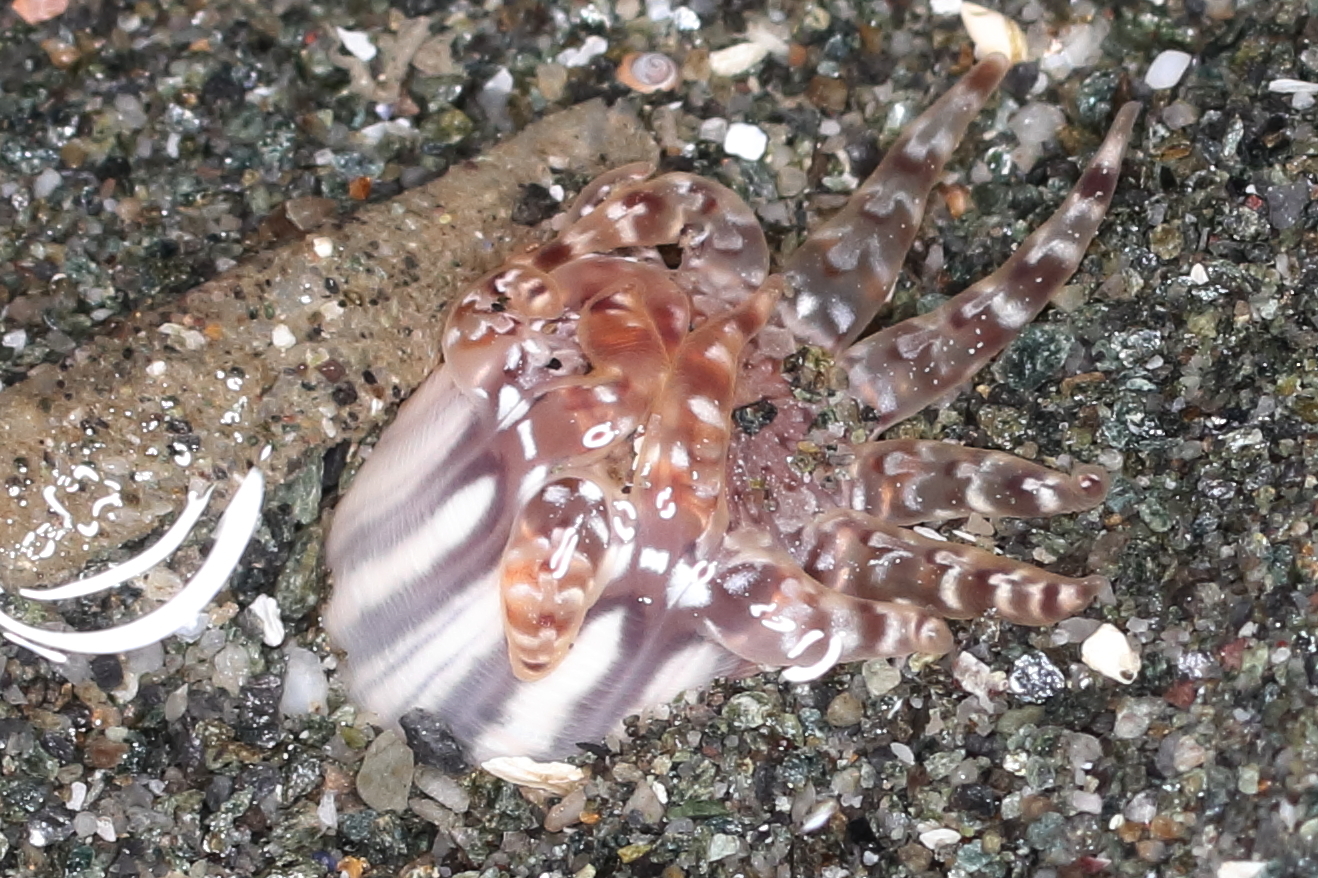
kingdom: Animalia
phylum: Cnidaria
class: Anthozoa
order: Actiniaria
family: Peachiidae
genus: Peachia
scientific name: Peachia quinquecapitata
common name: Twelve-tentacled parasitic anemone
